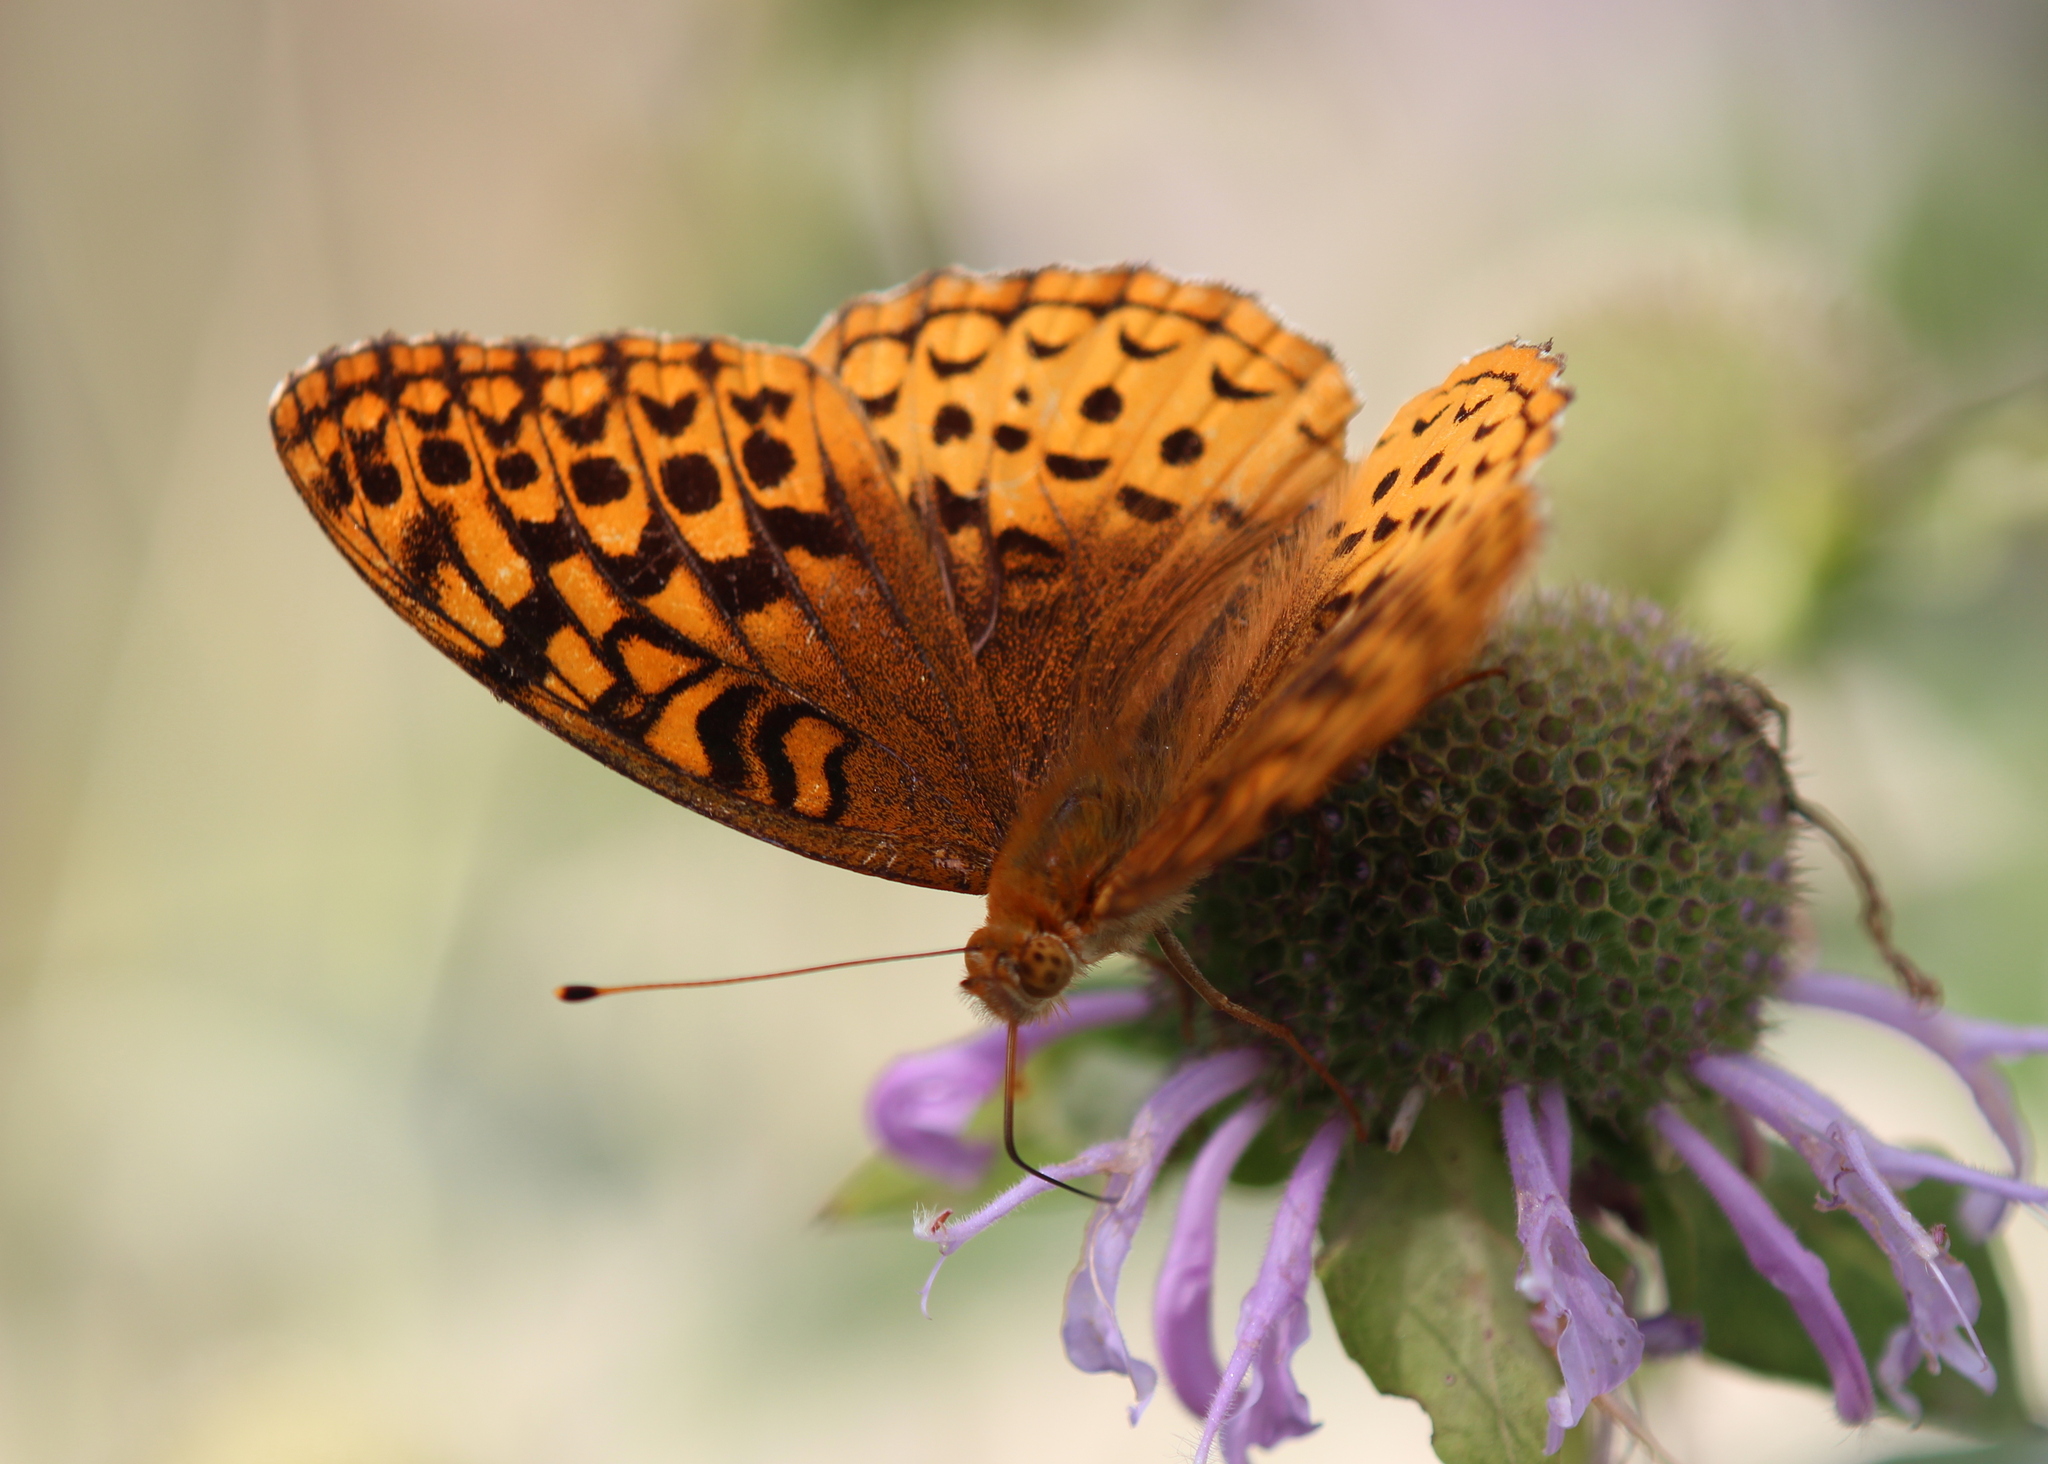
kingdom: Animalia
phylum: Arthropoda
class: Insecta
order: Lepidoptera
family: Nymphalidae
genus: Speyeria
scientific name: Speyeria cybele
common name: Great spangled fritillary
